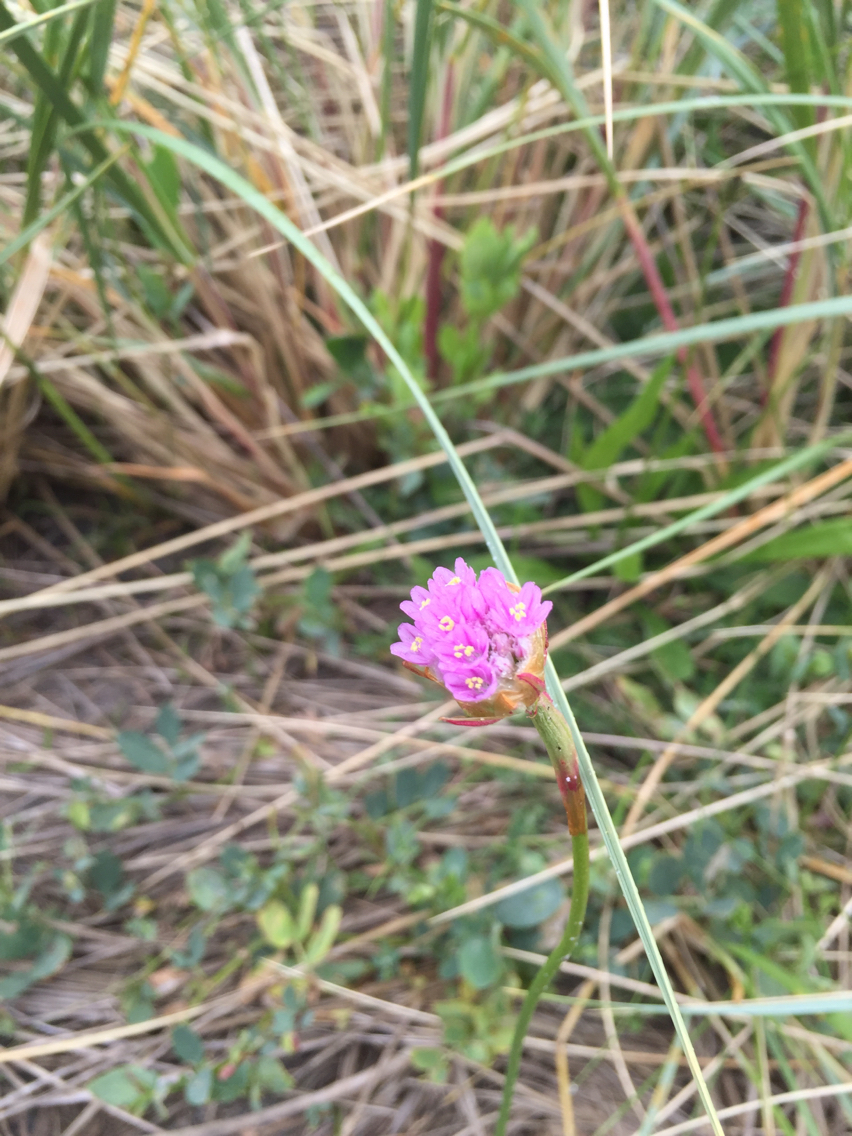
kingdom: Plantae
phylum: Tracheophyta
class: Magnoliopsida
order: Caryophyllales
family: Plumbaginaceae
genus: Armeria
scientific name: Armeria maritima
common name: Thrift
